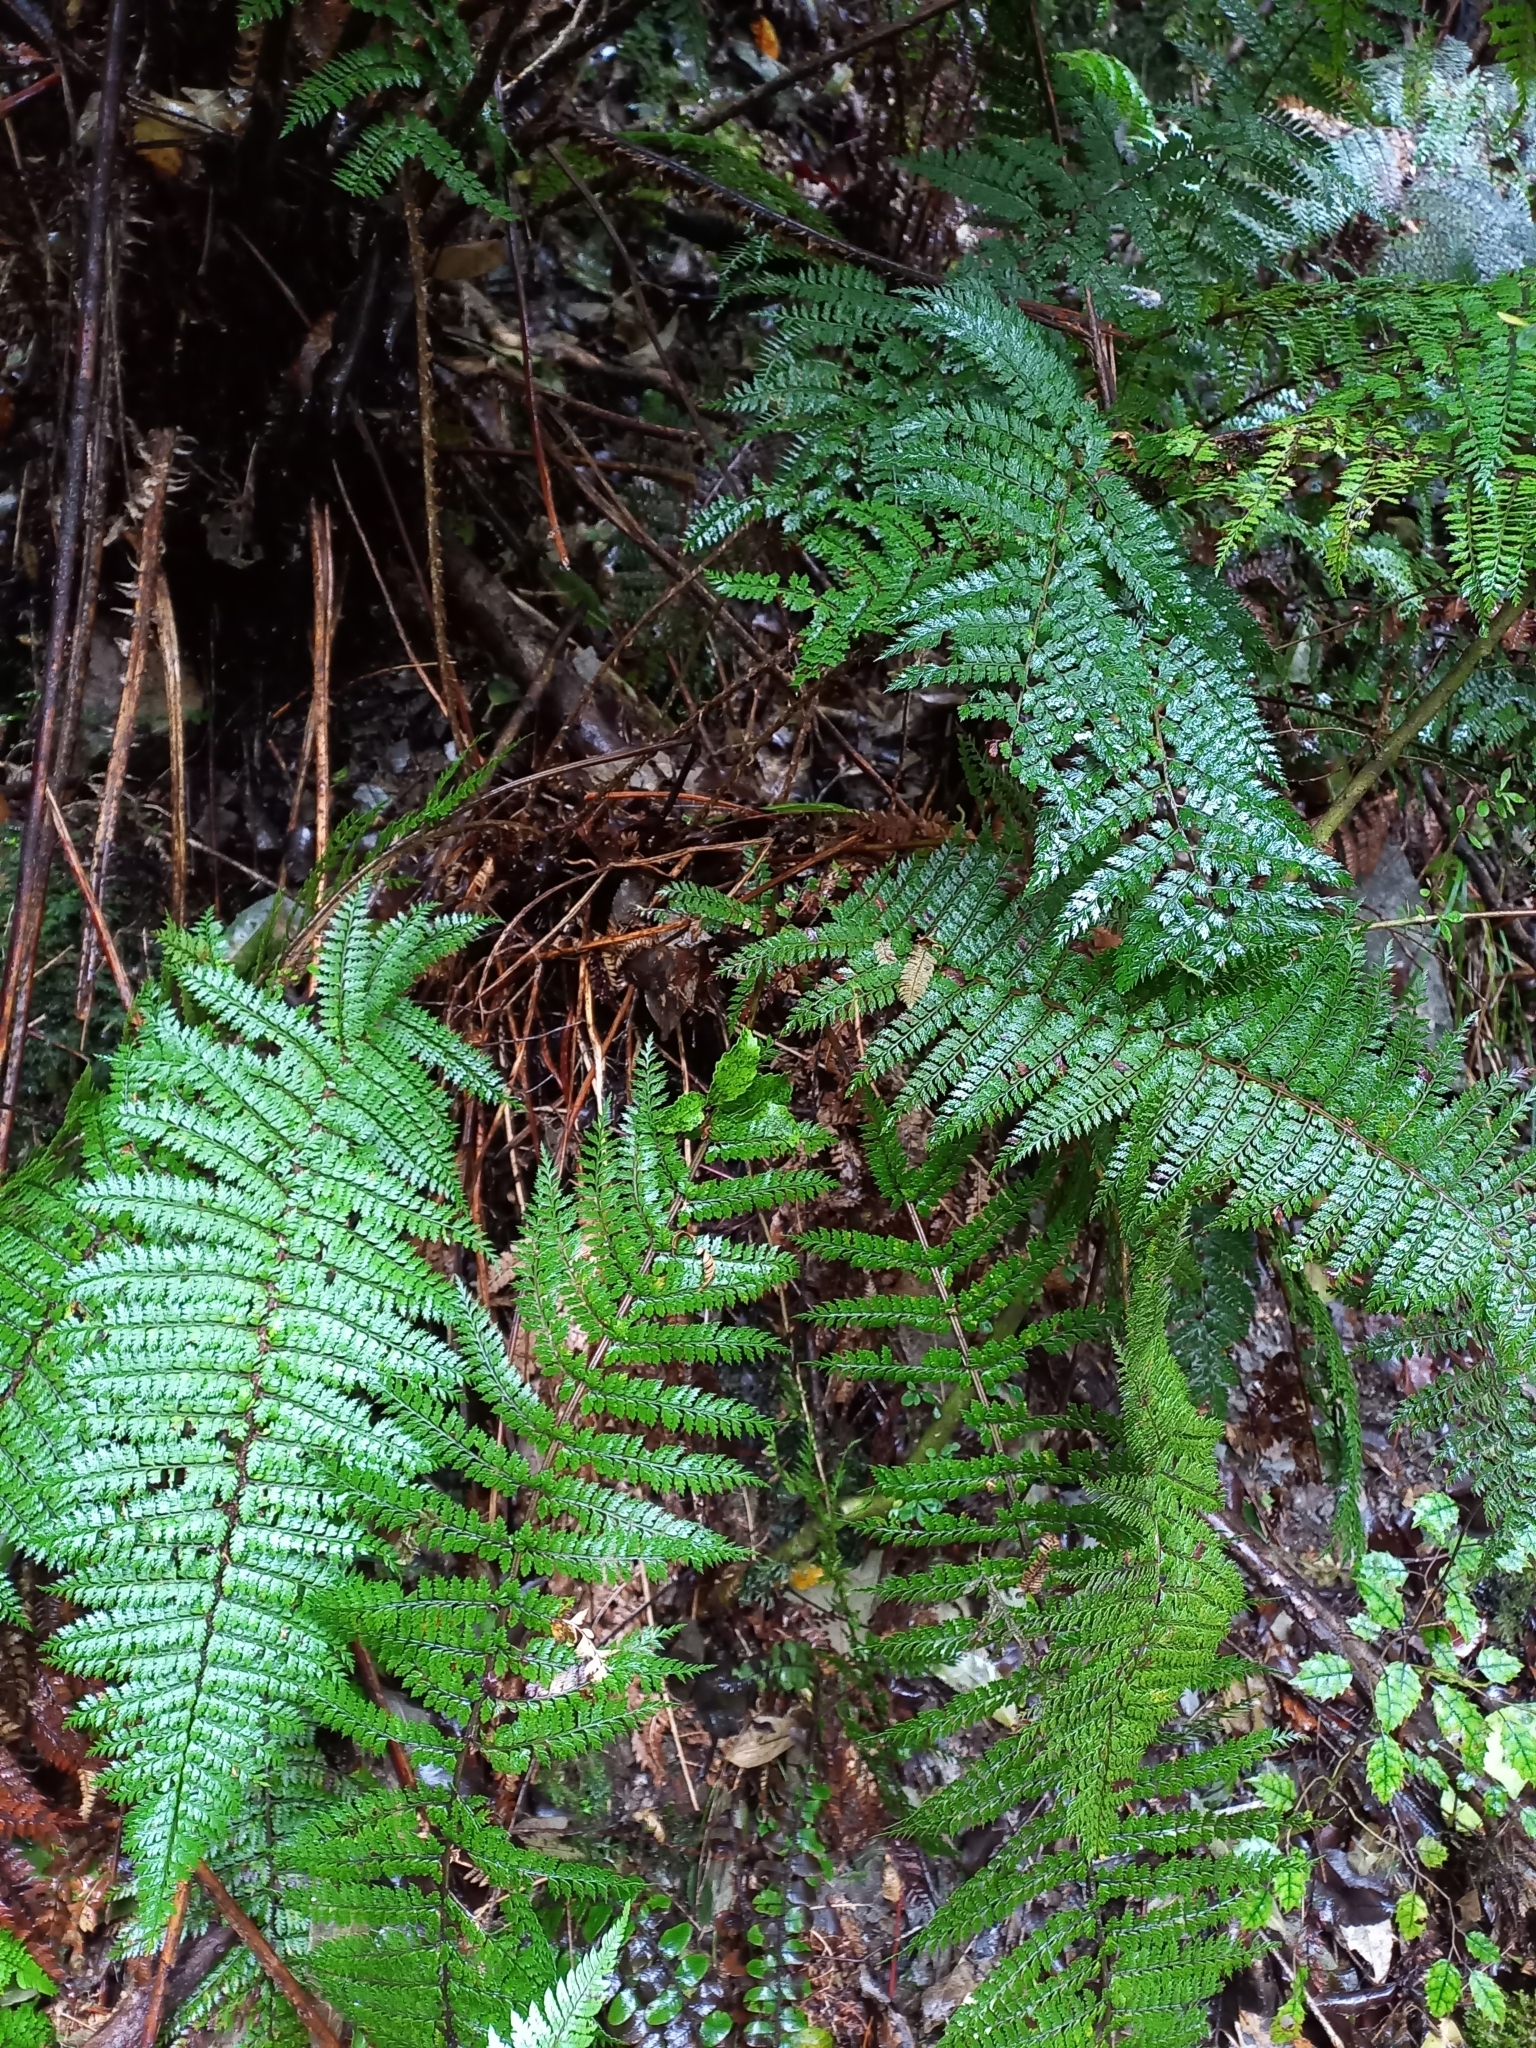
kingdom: Plantae
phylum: Tracheophyta
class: Polypodiopsida
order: Polypodiales
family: Dryopteridaceae
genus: Polystichum
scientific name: Polystichum vestitum
